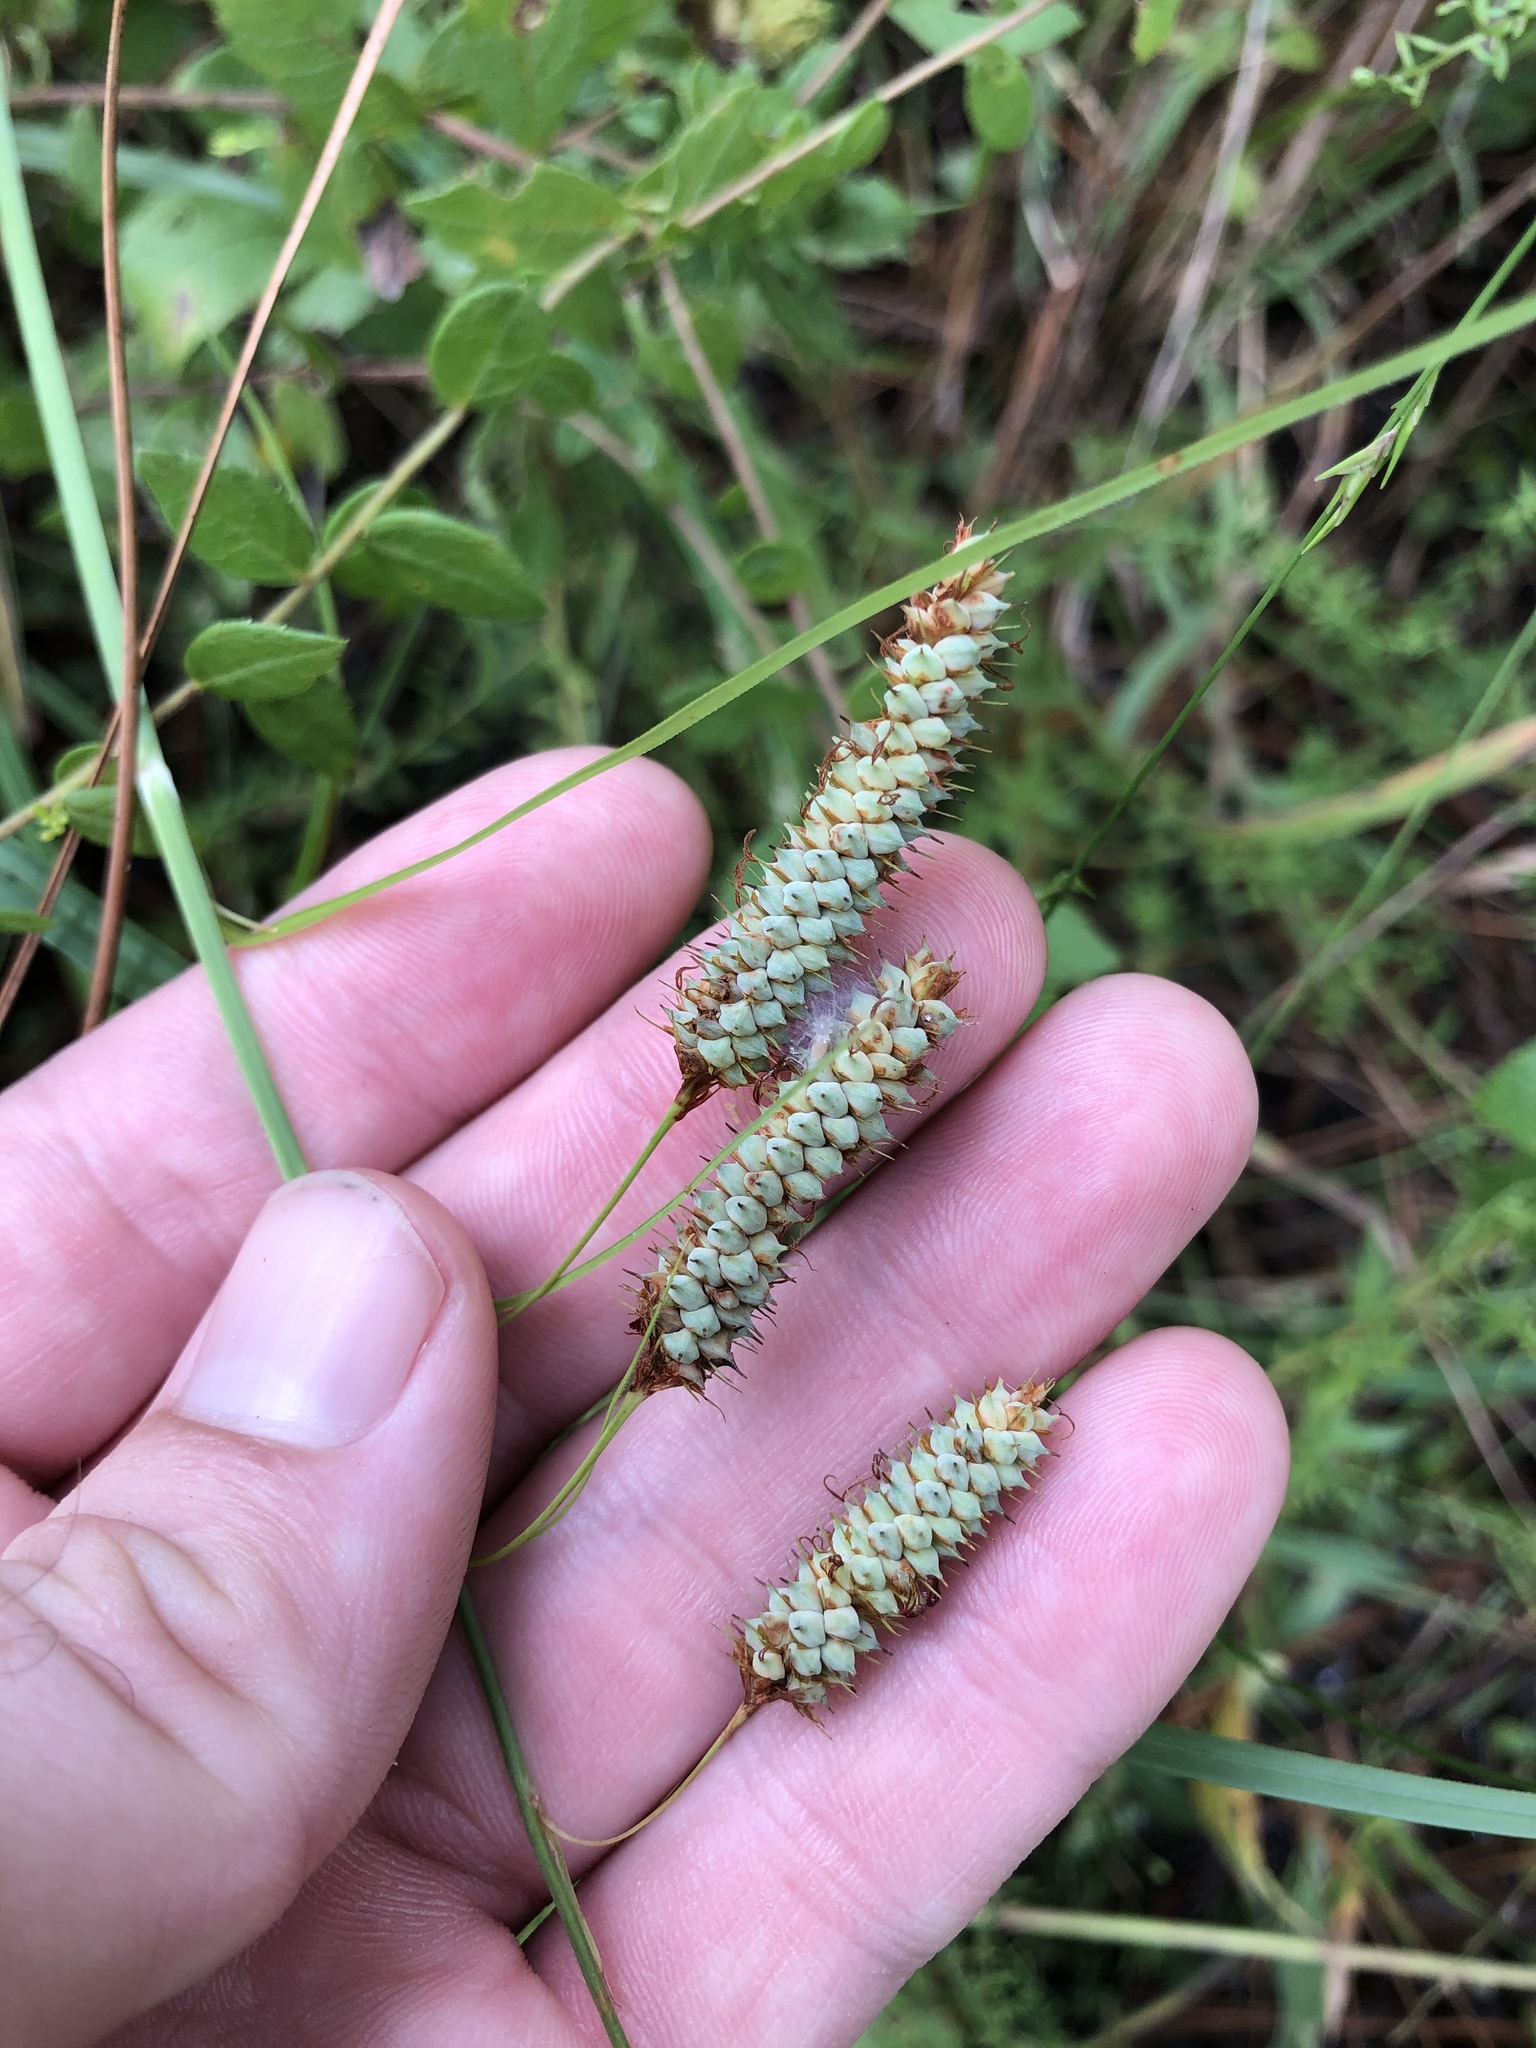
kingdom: Plantae
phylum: Tracheophyta
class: Liliopsida
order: Poales
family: Cyperaceae
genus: Carex
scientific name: Carex glaucescens
